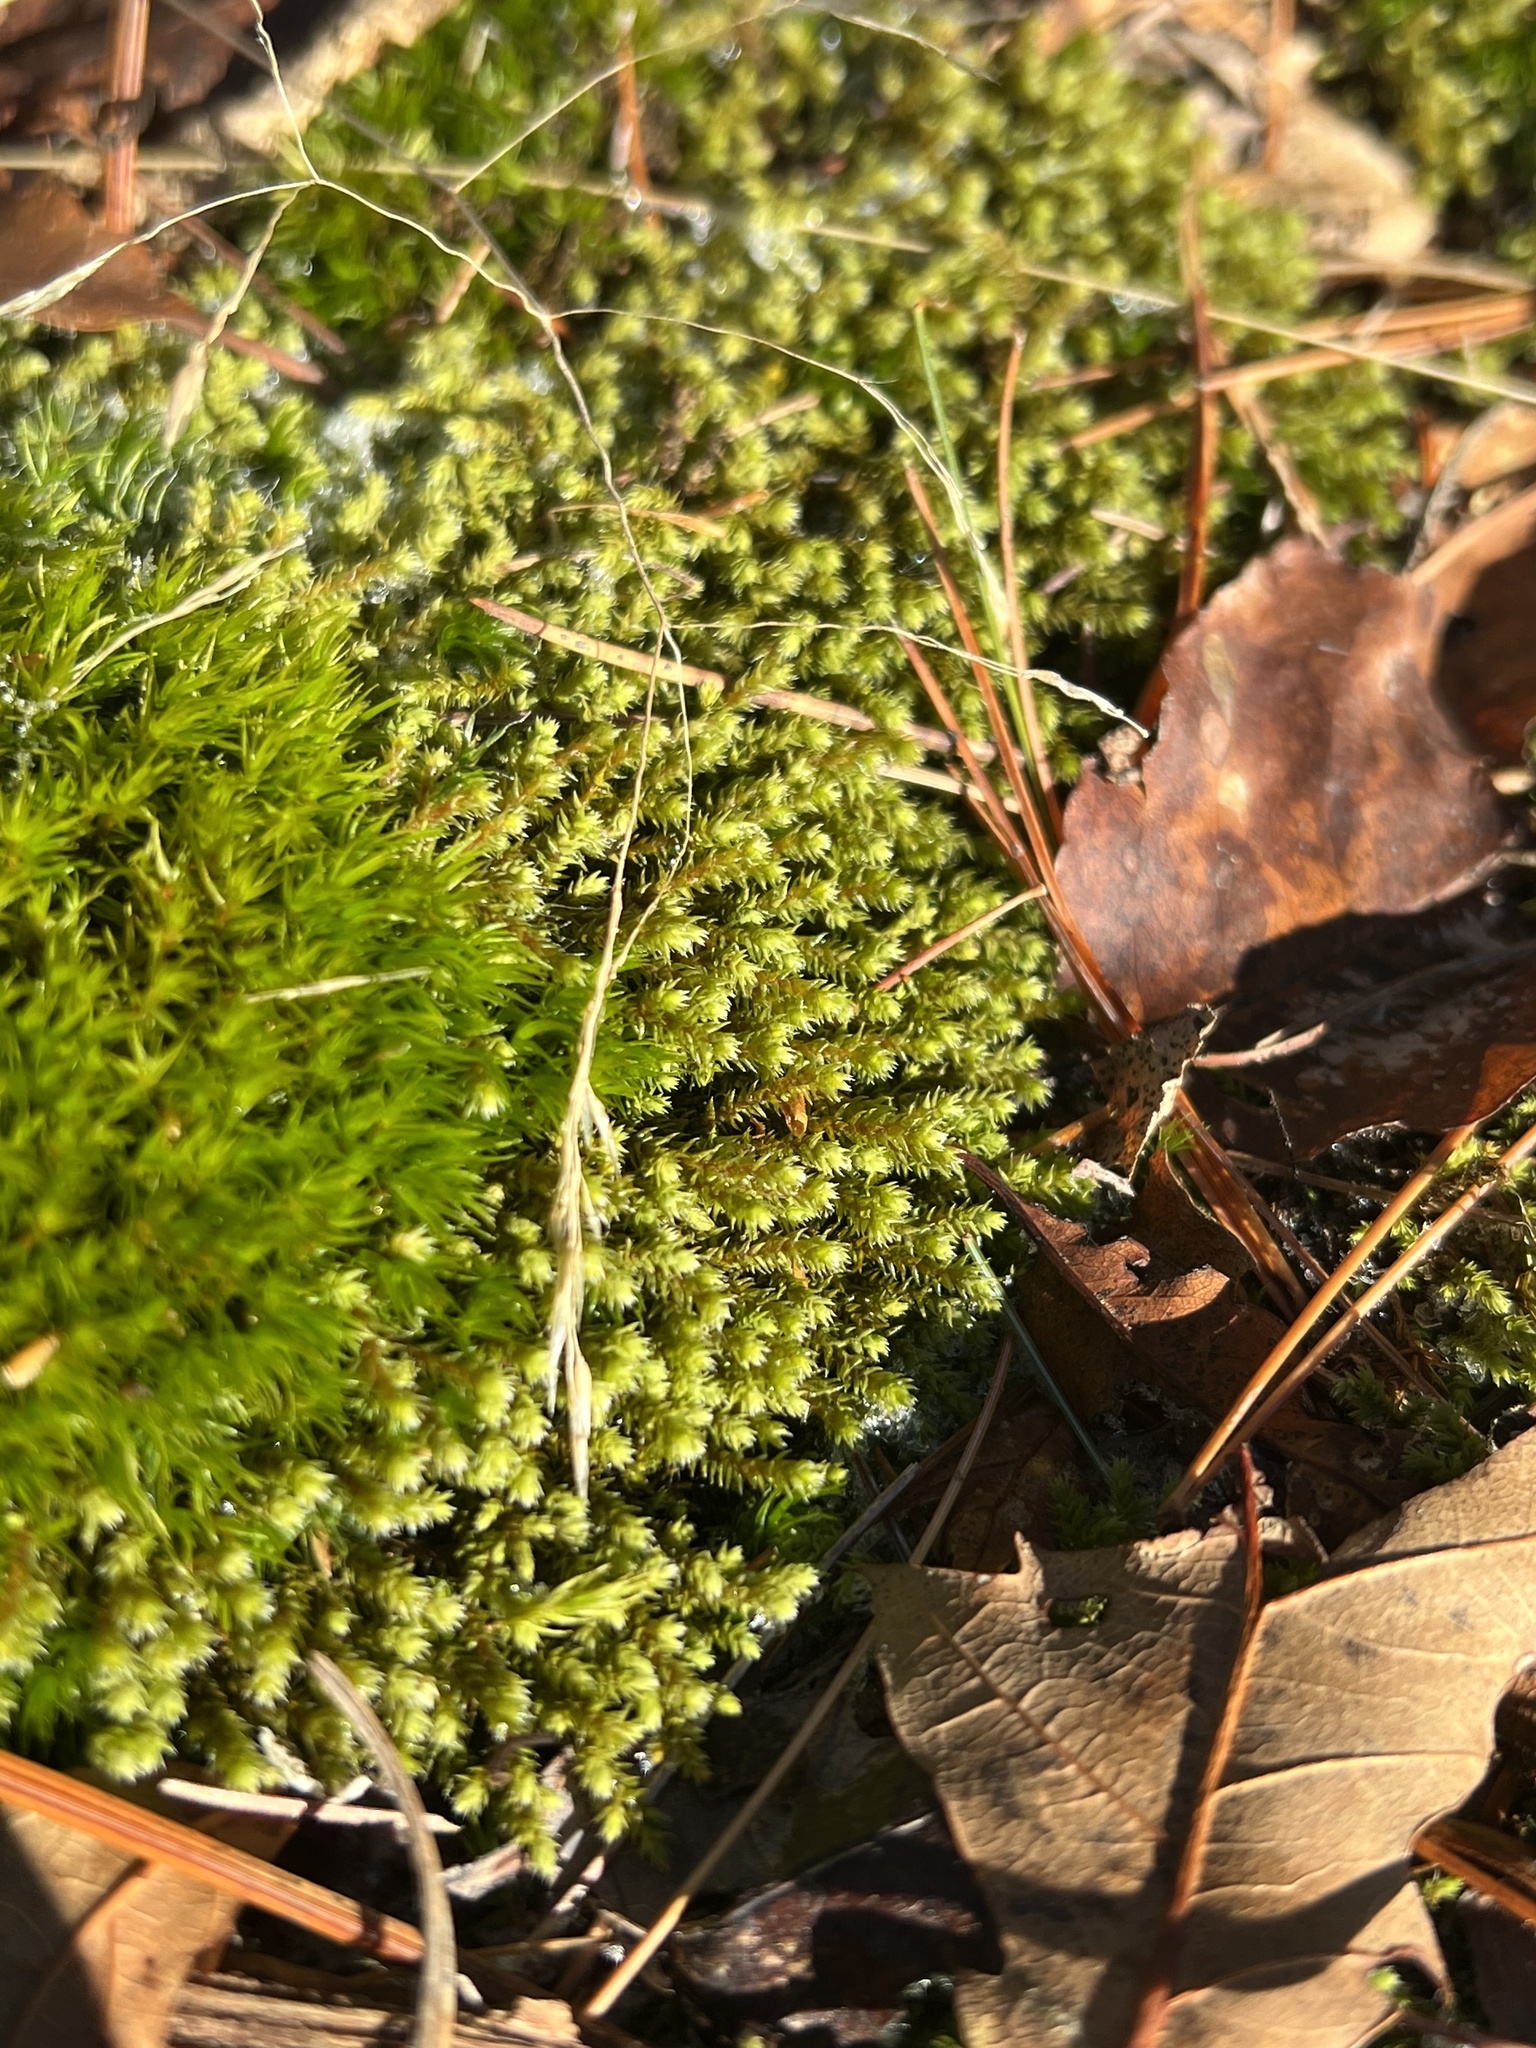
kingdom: Plantae
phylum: Bryophyta
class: Bryopsida
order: Hedwigiales
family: Hedwigiaceae
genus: Hedwigia
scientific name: Hedwigia ciliata
